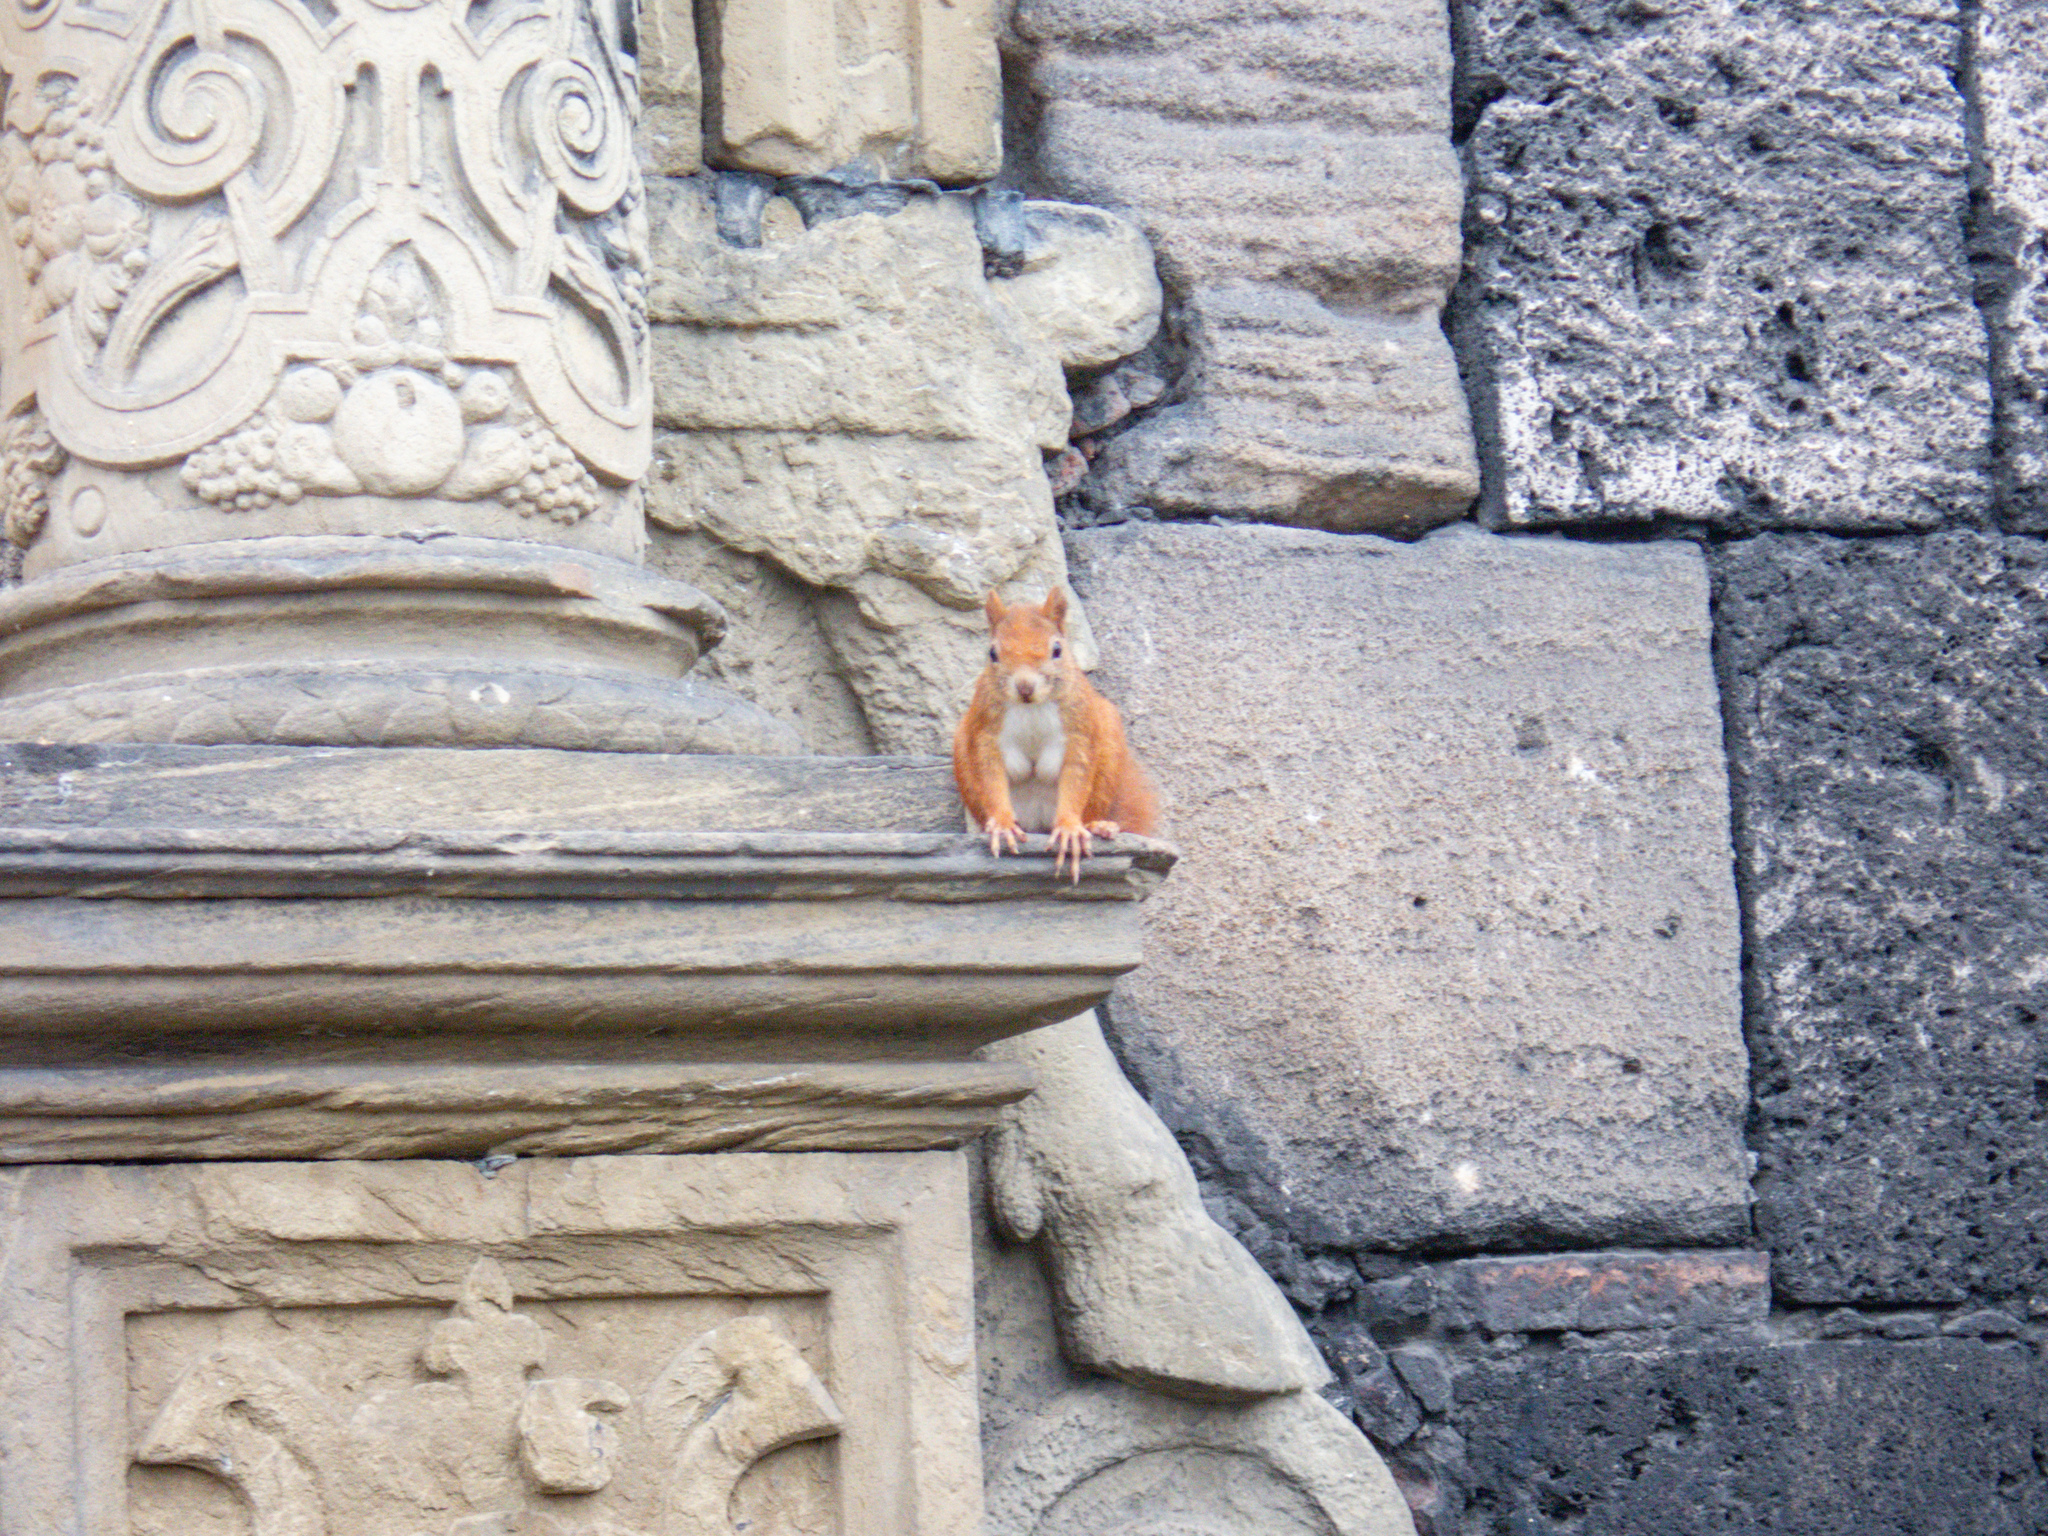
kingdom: Animalia
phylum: Chordata
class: Mammalia
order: Rodentia
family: Sciuridae
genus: Sciurus
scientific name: Sciurus vulgaris
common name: Eurasian red squirrel
